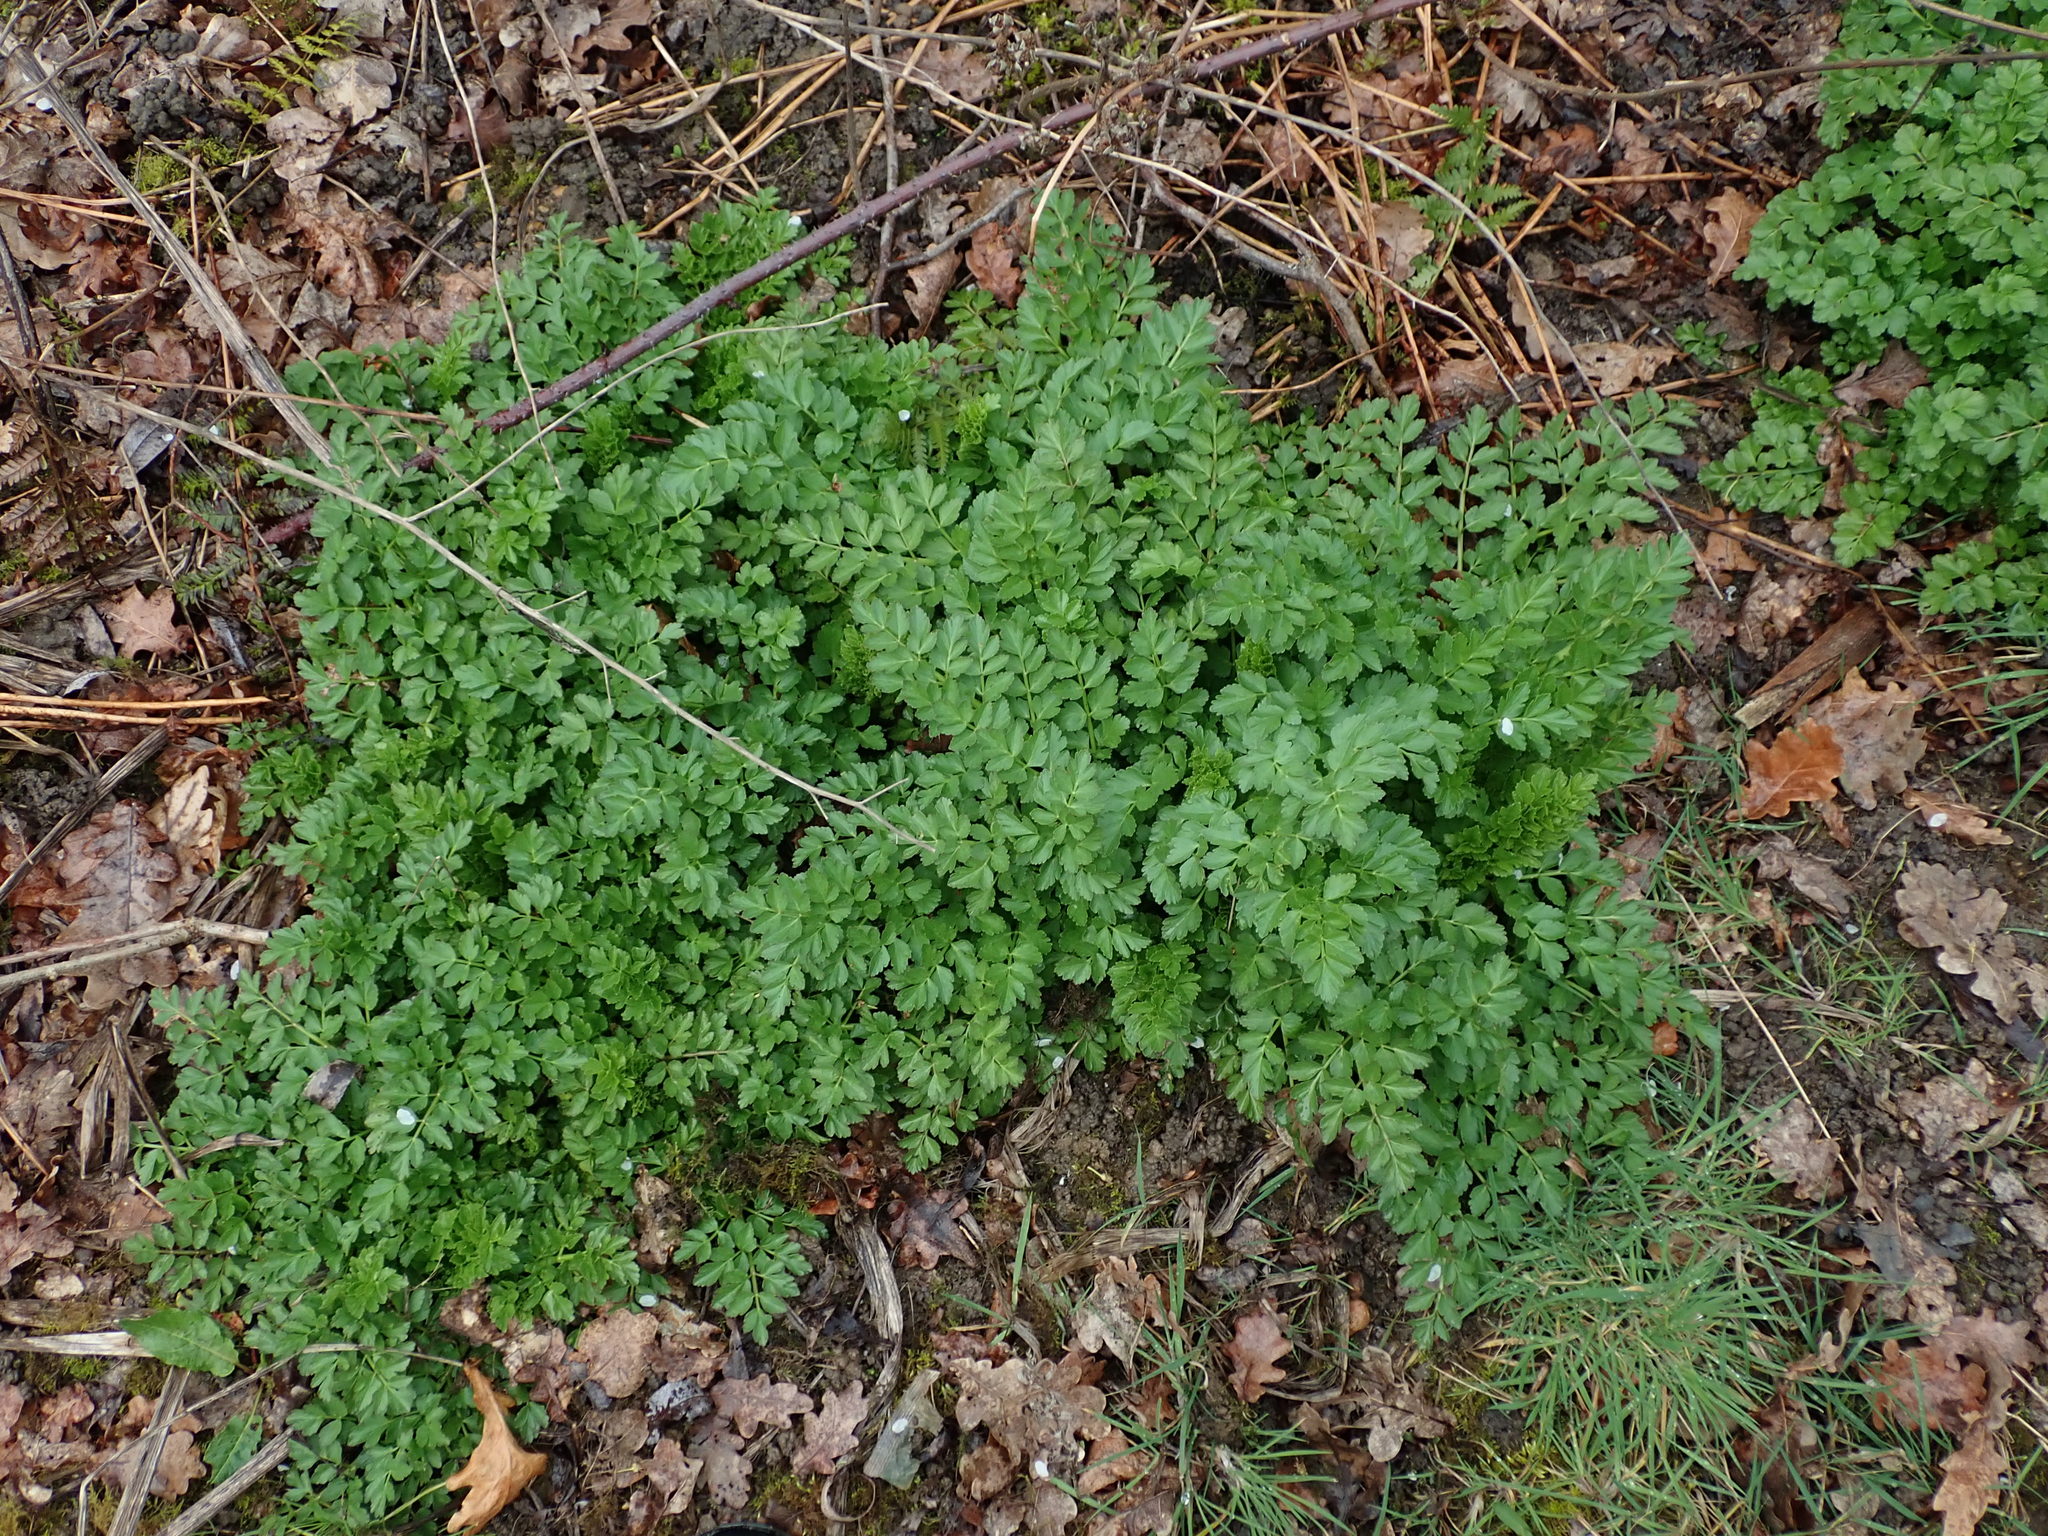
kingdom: Plantae
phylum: Tracheophyta
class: Magnoliopsida
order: Apiales
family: Apiaceae
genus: Oenanthe
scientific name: Oenanthe crocata
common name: Hemlock water-dropwort
